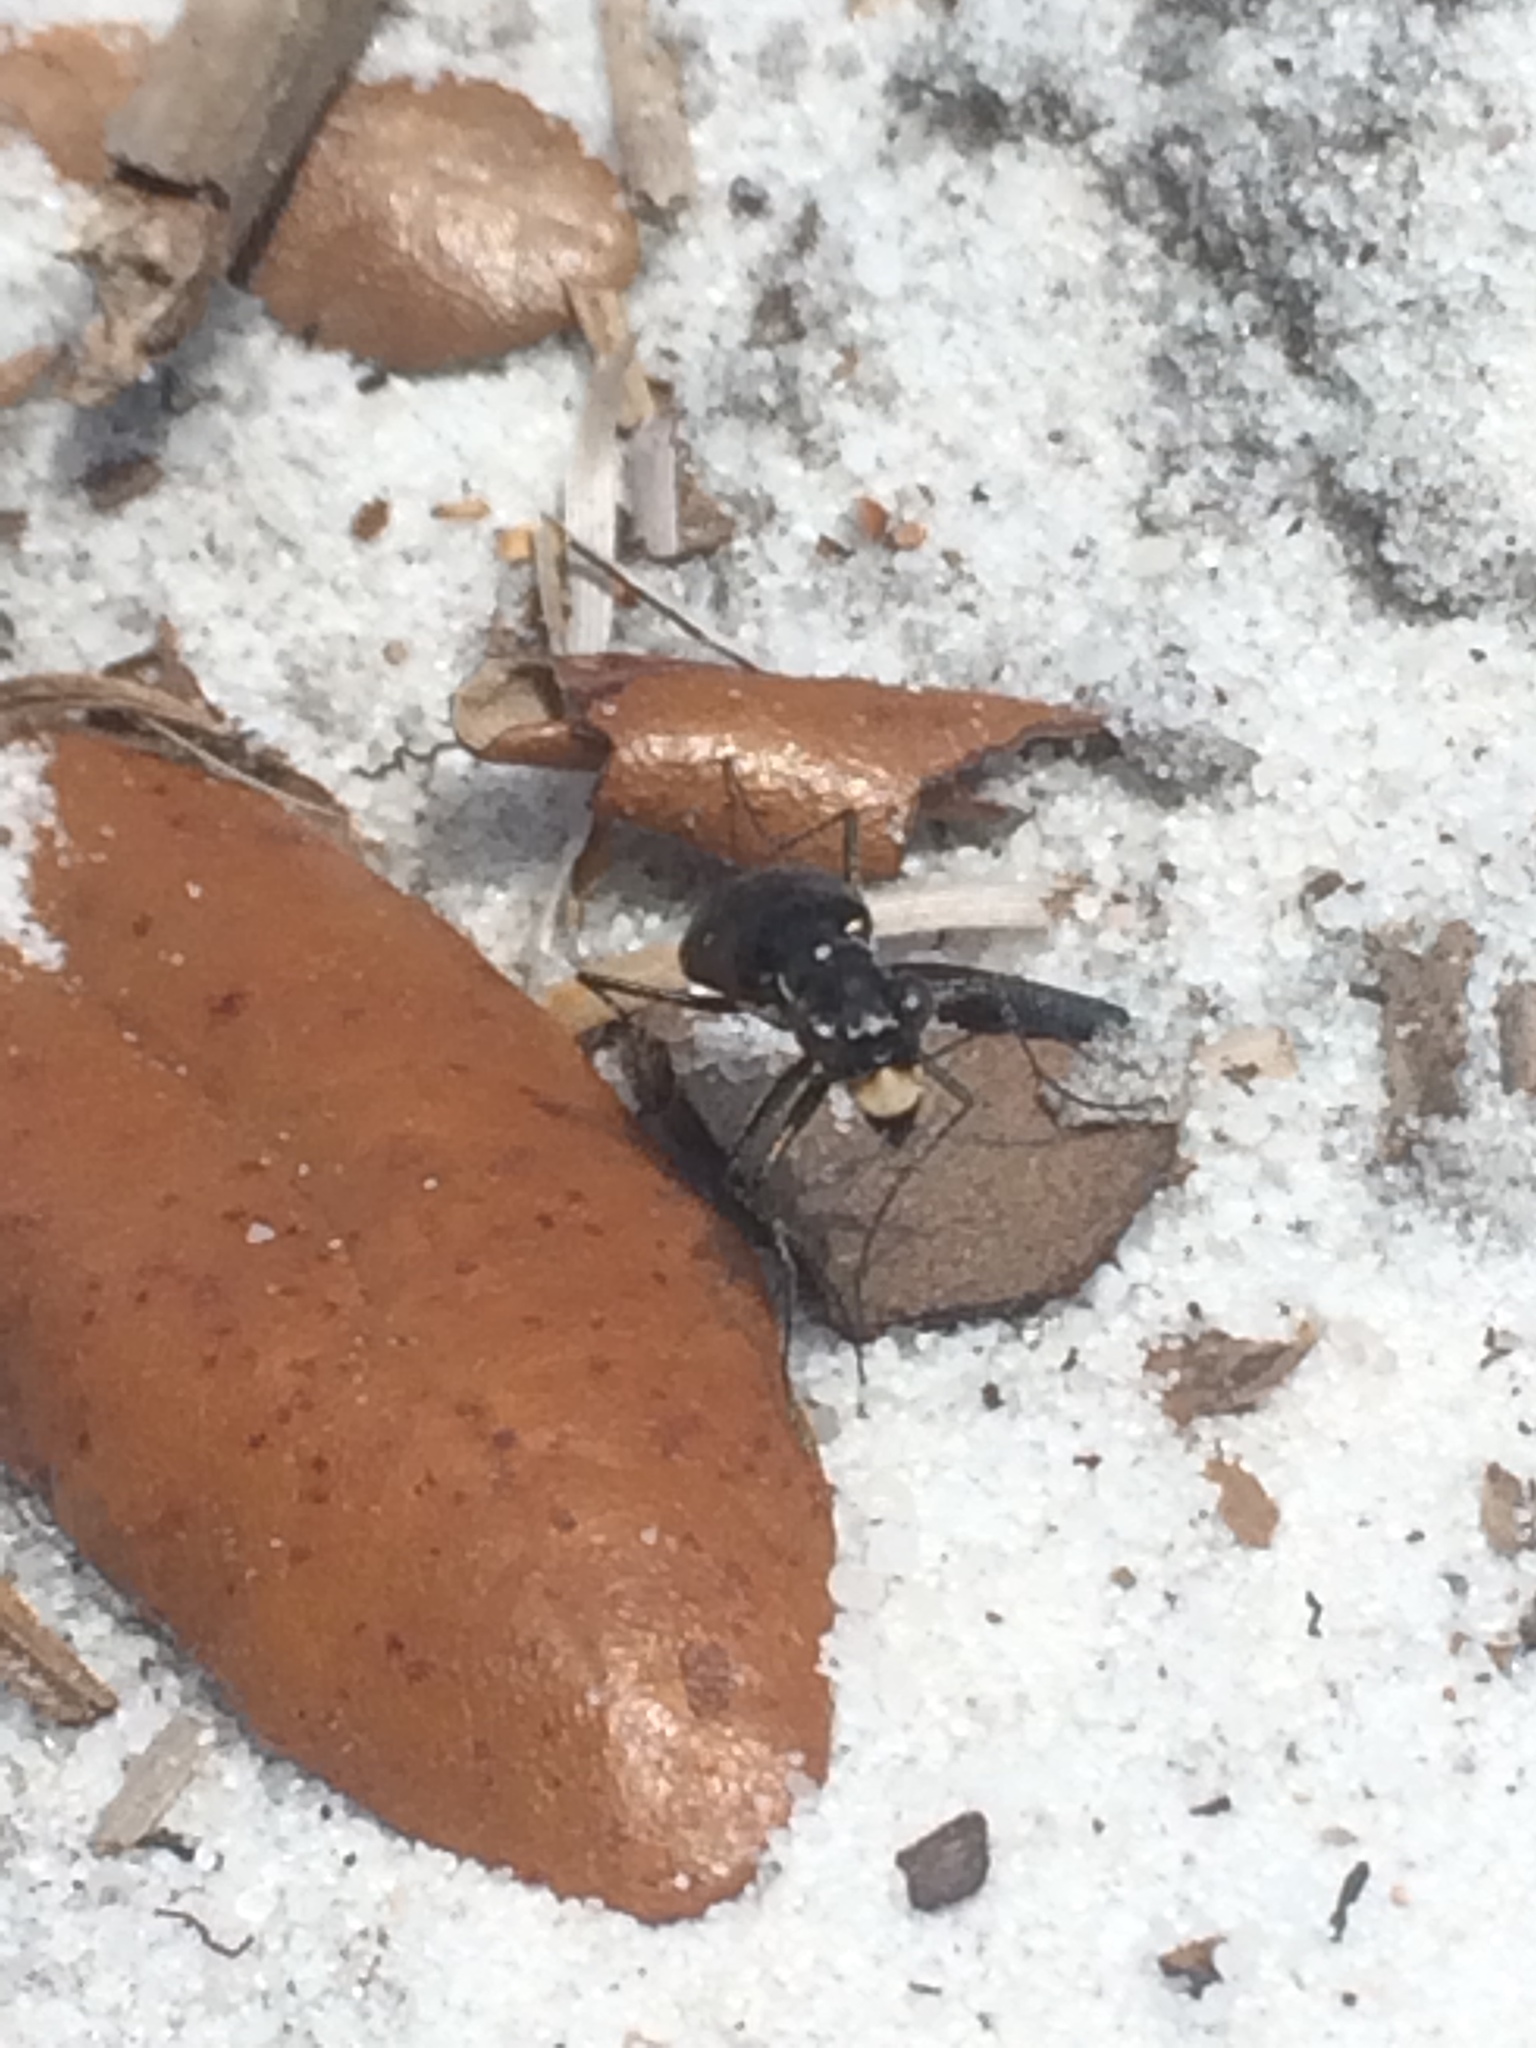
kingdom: Animalia
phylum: Arthropoda
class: Insecta
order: Coleoptera
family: Carabidae
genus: Cicindela
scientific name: Cicindela abdominalis
